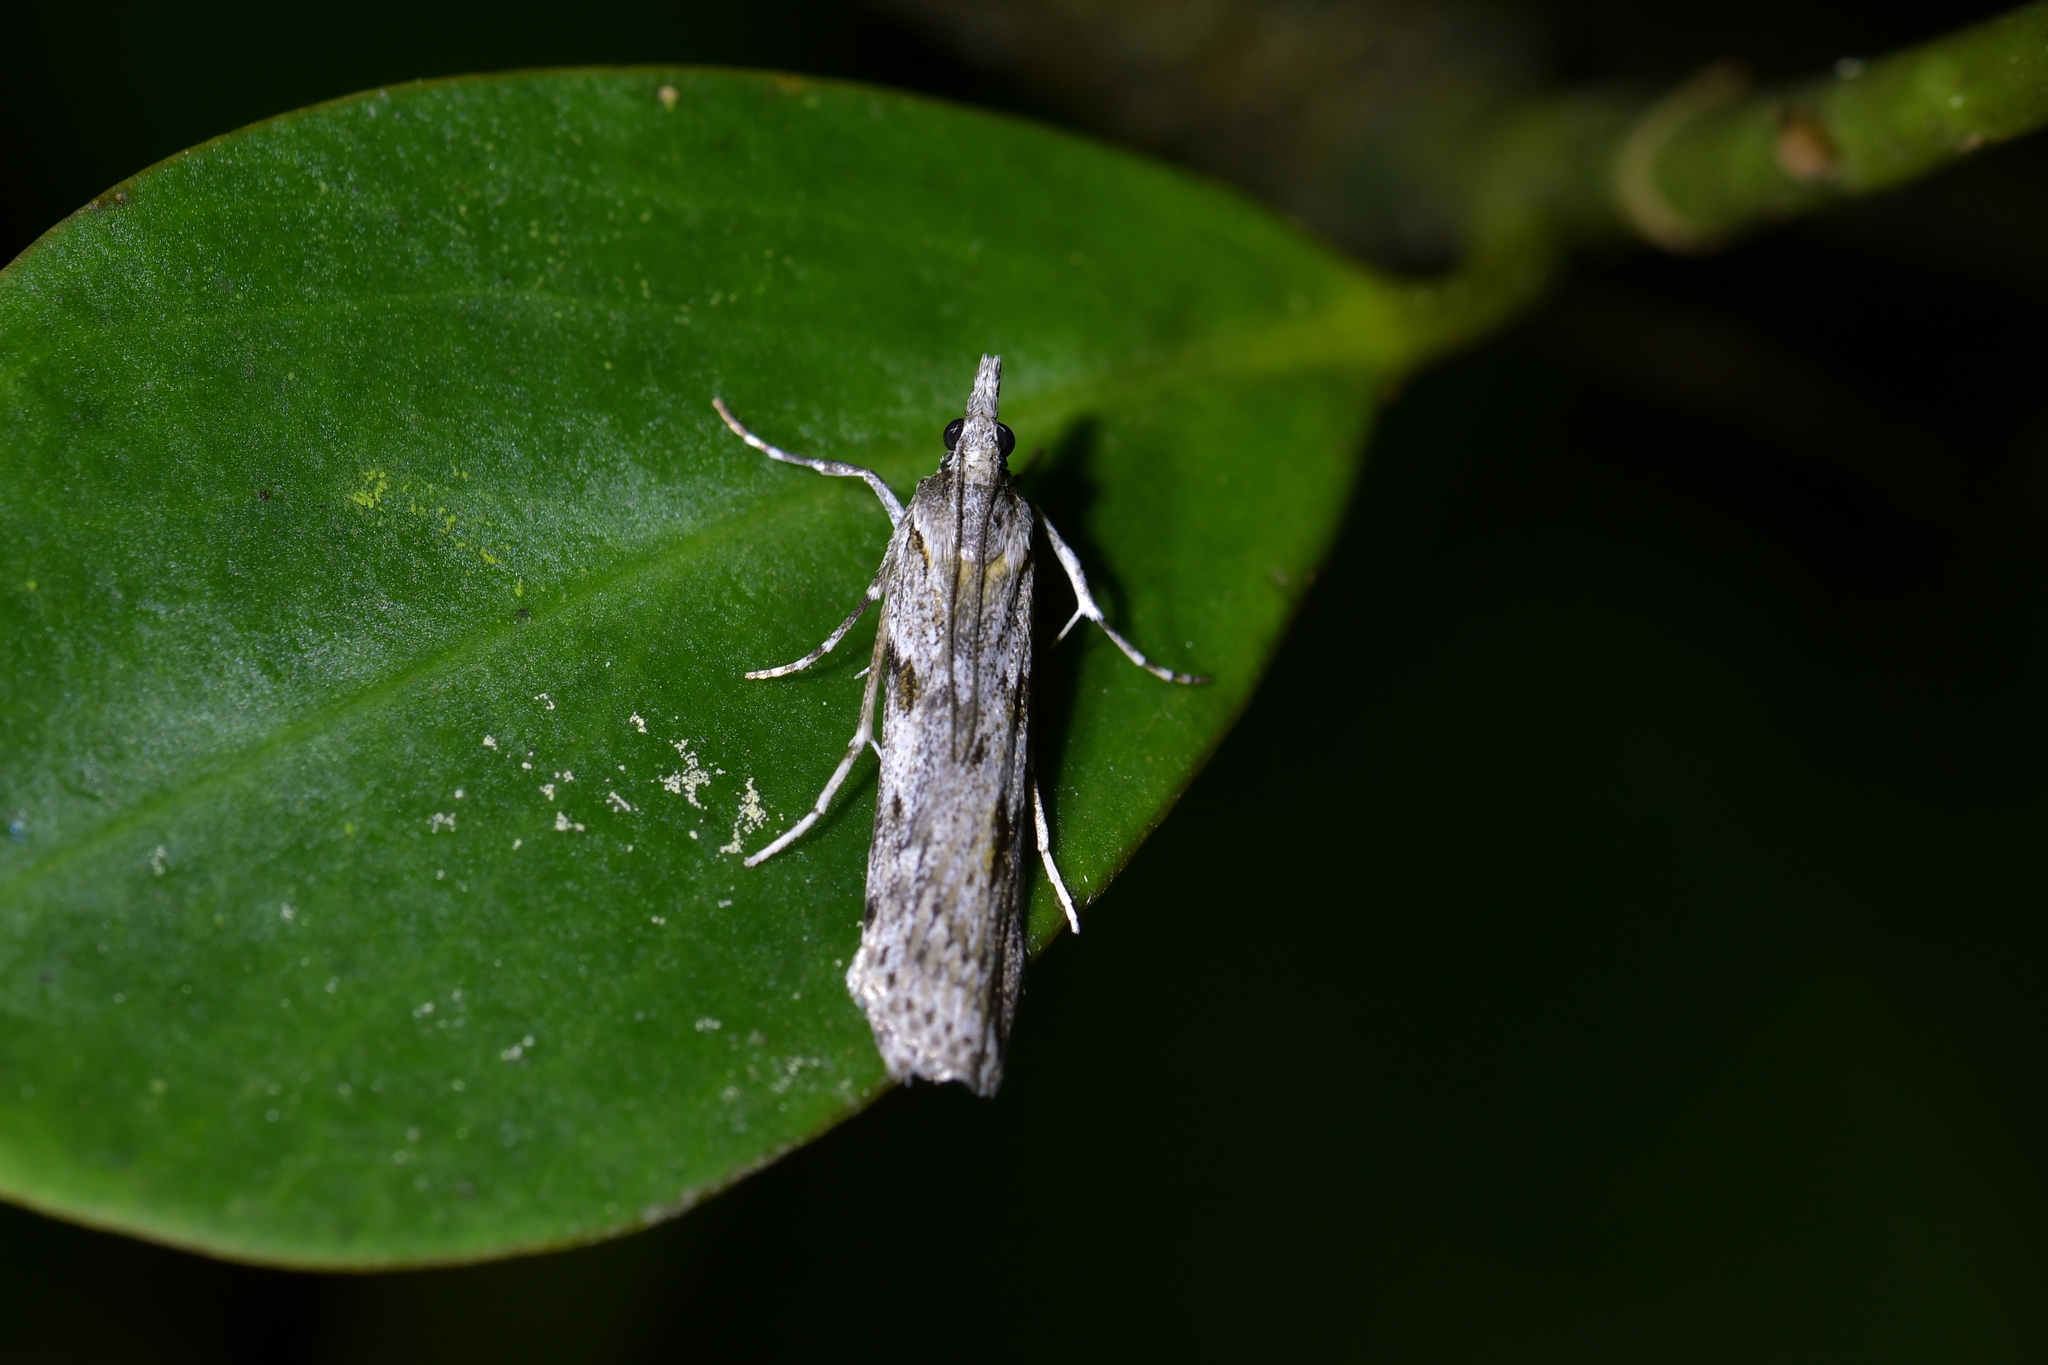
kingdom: Animalia
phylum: Arthropoda
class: Insecta
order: Lepidoptera
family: Crambidae
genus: Scoparia
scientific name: Scoparia halopis
